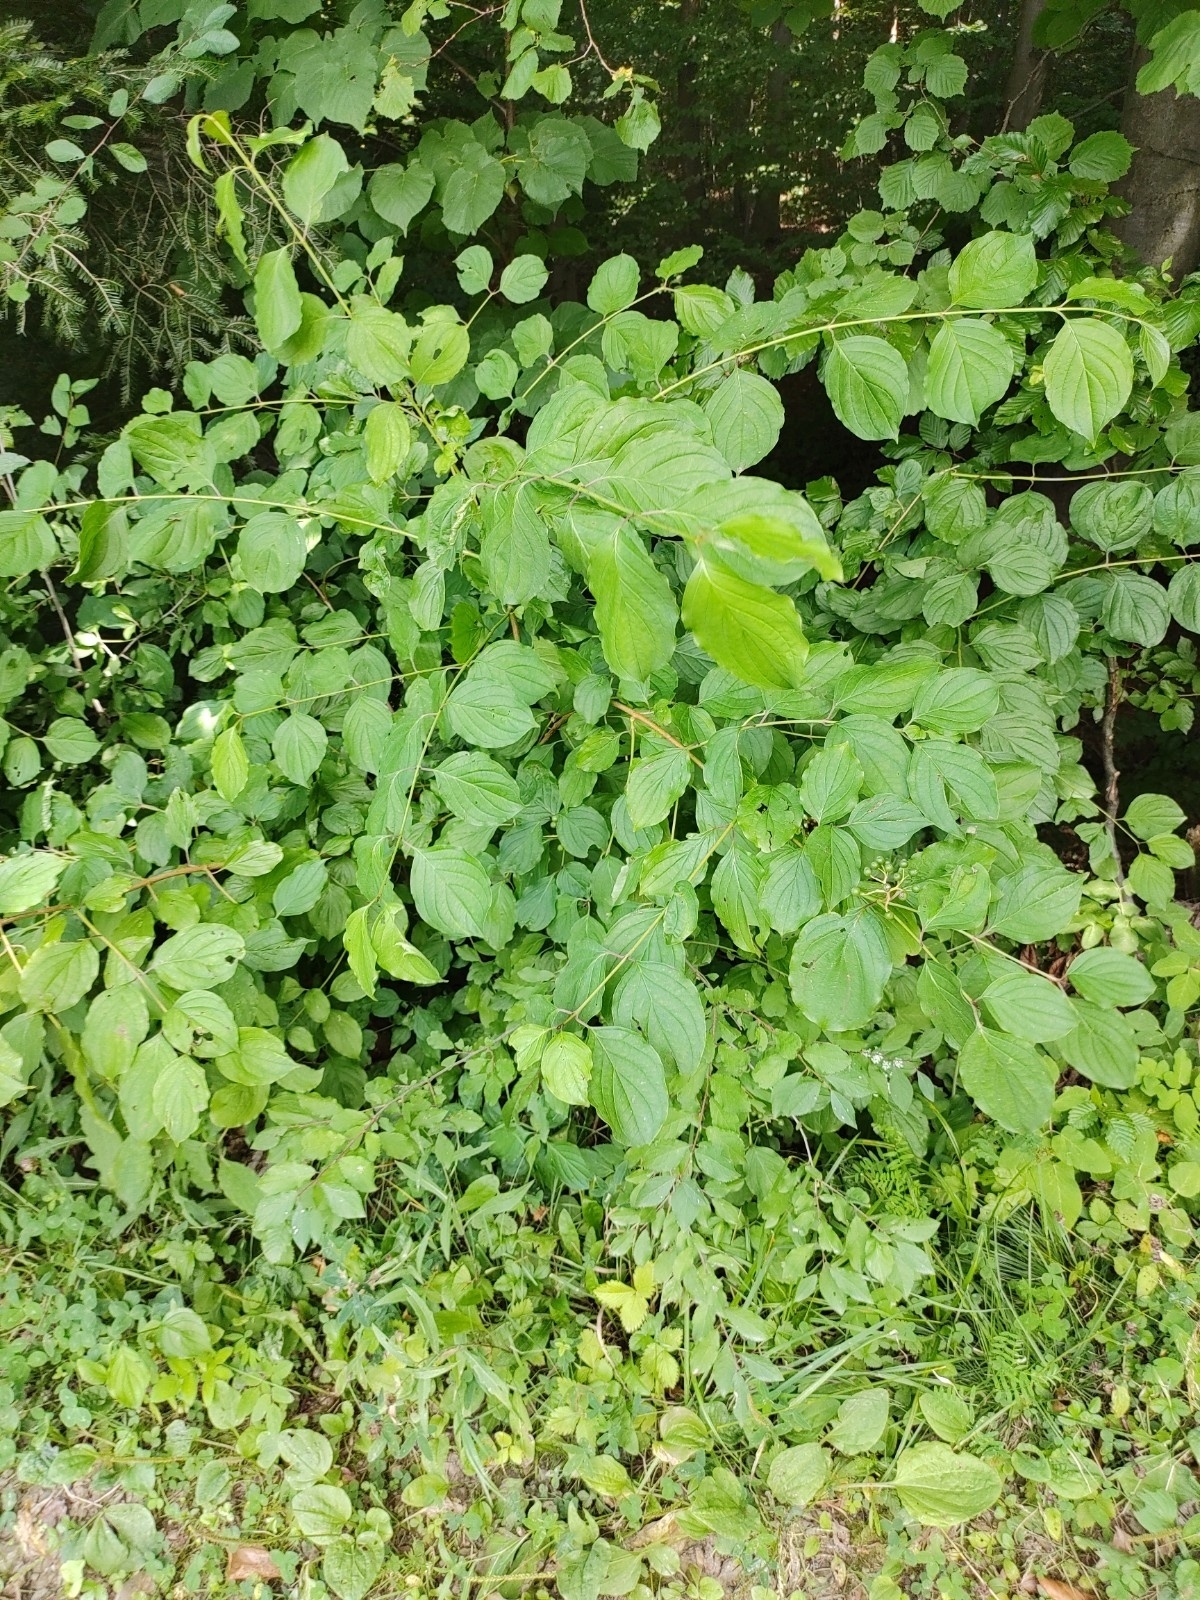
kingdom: Plantae
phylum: Tracheophyta
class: Magnoliopsida
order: Cornales
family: Cornaceae
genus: Cornus
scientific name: Cornus sanguinea
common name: Dogwood
